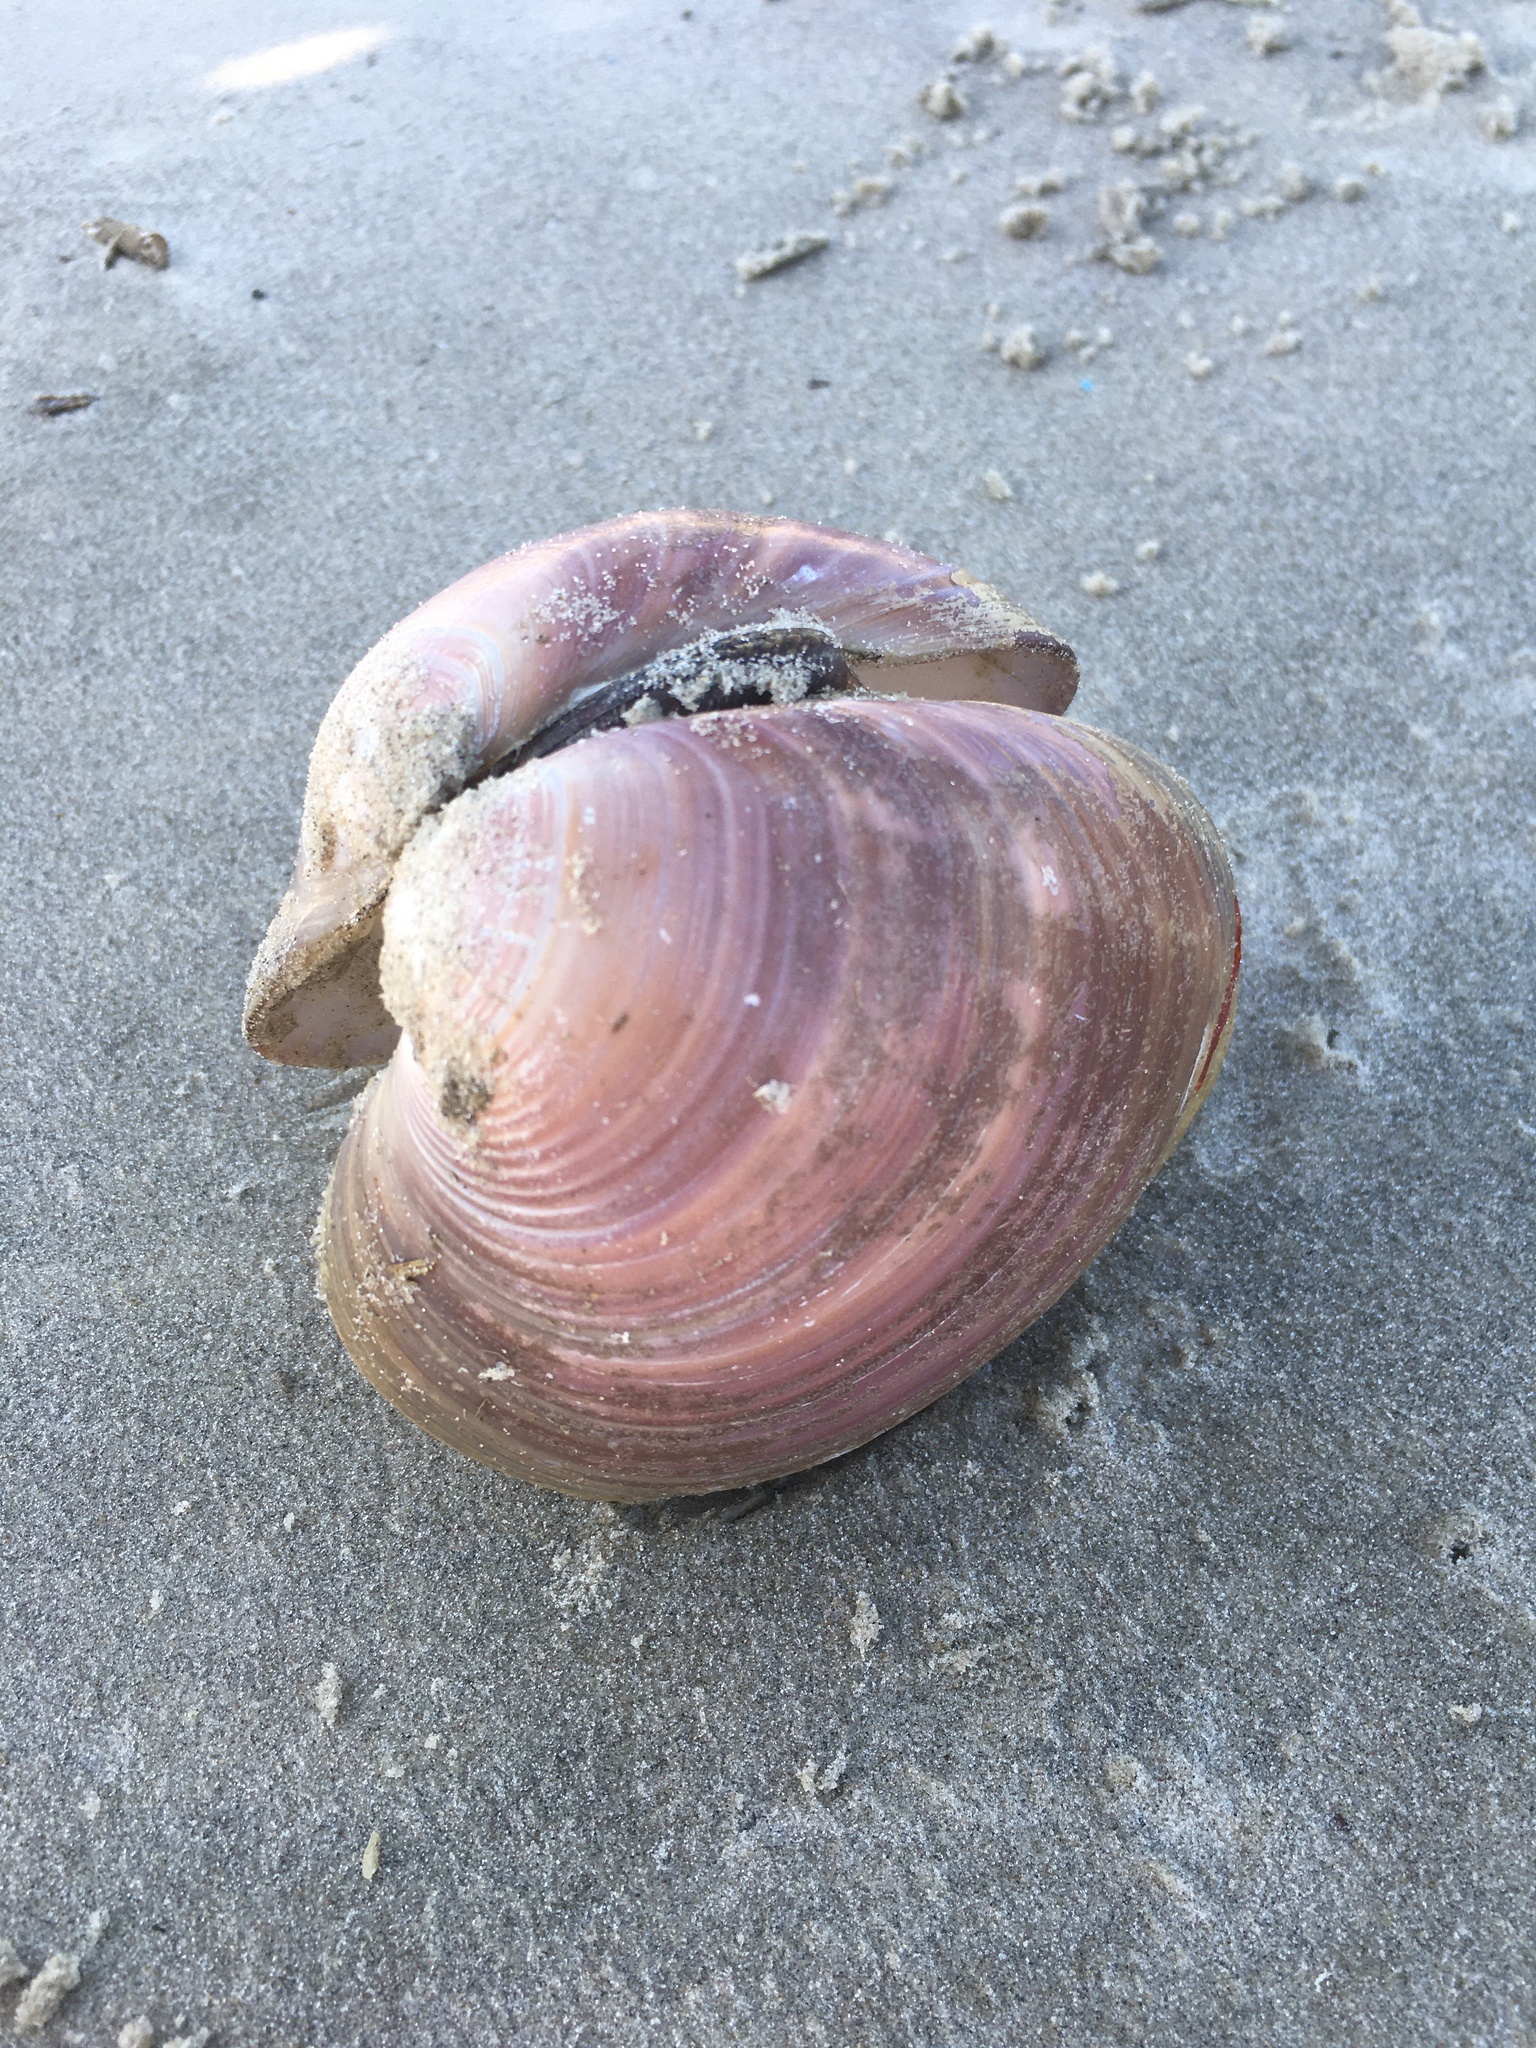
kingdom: Animalia
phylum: Mollusca
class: Bivalvia
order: Venerida
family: Veneridae
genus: Eucallista
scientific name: Eucallista purpurata
